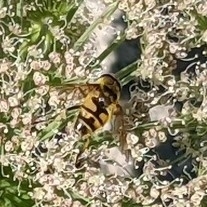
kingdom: Animalia
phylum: Arthropoda
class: Insecta
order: Diptera
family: Syrphidae
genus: Myathropa
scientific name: Myathropa florea
